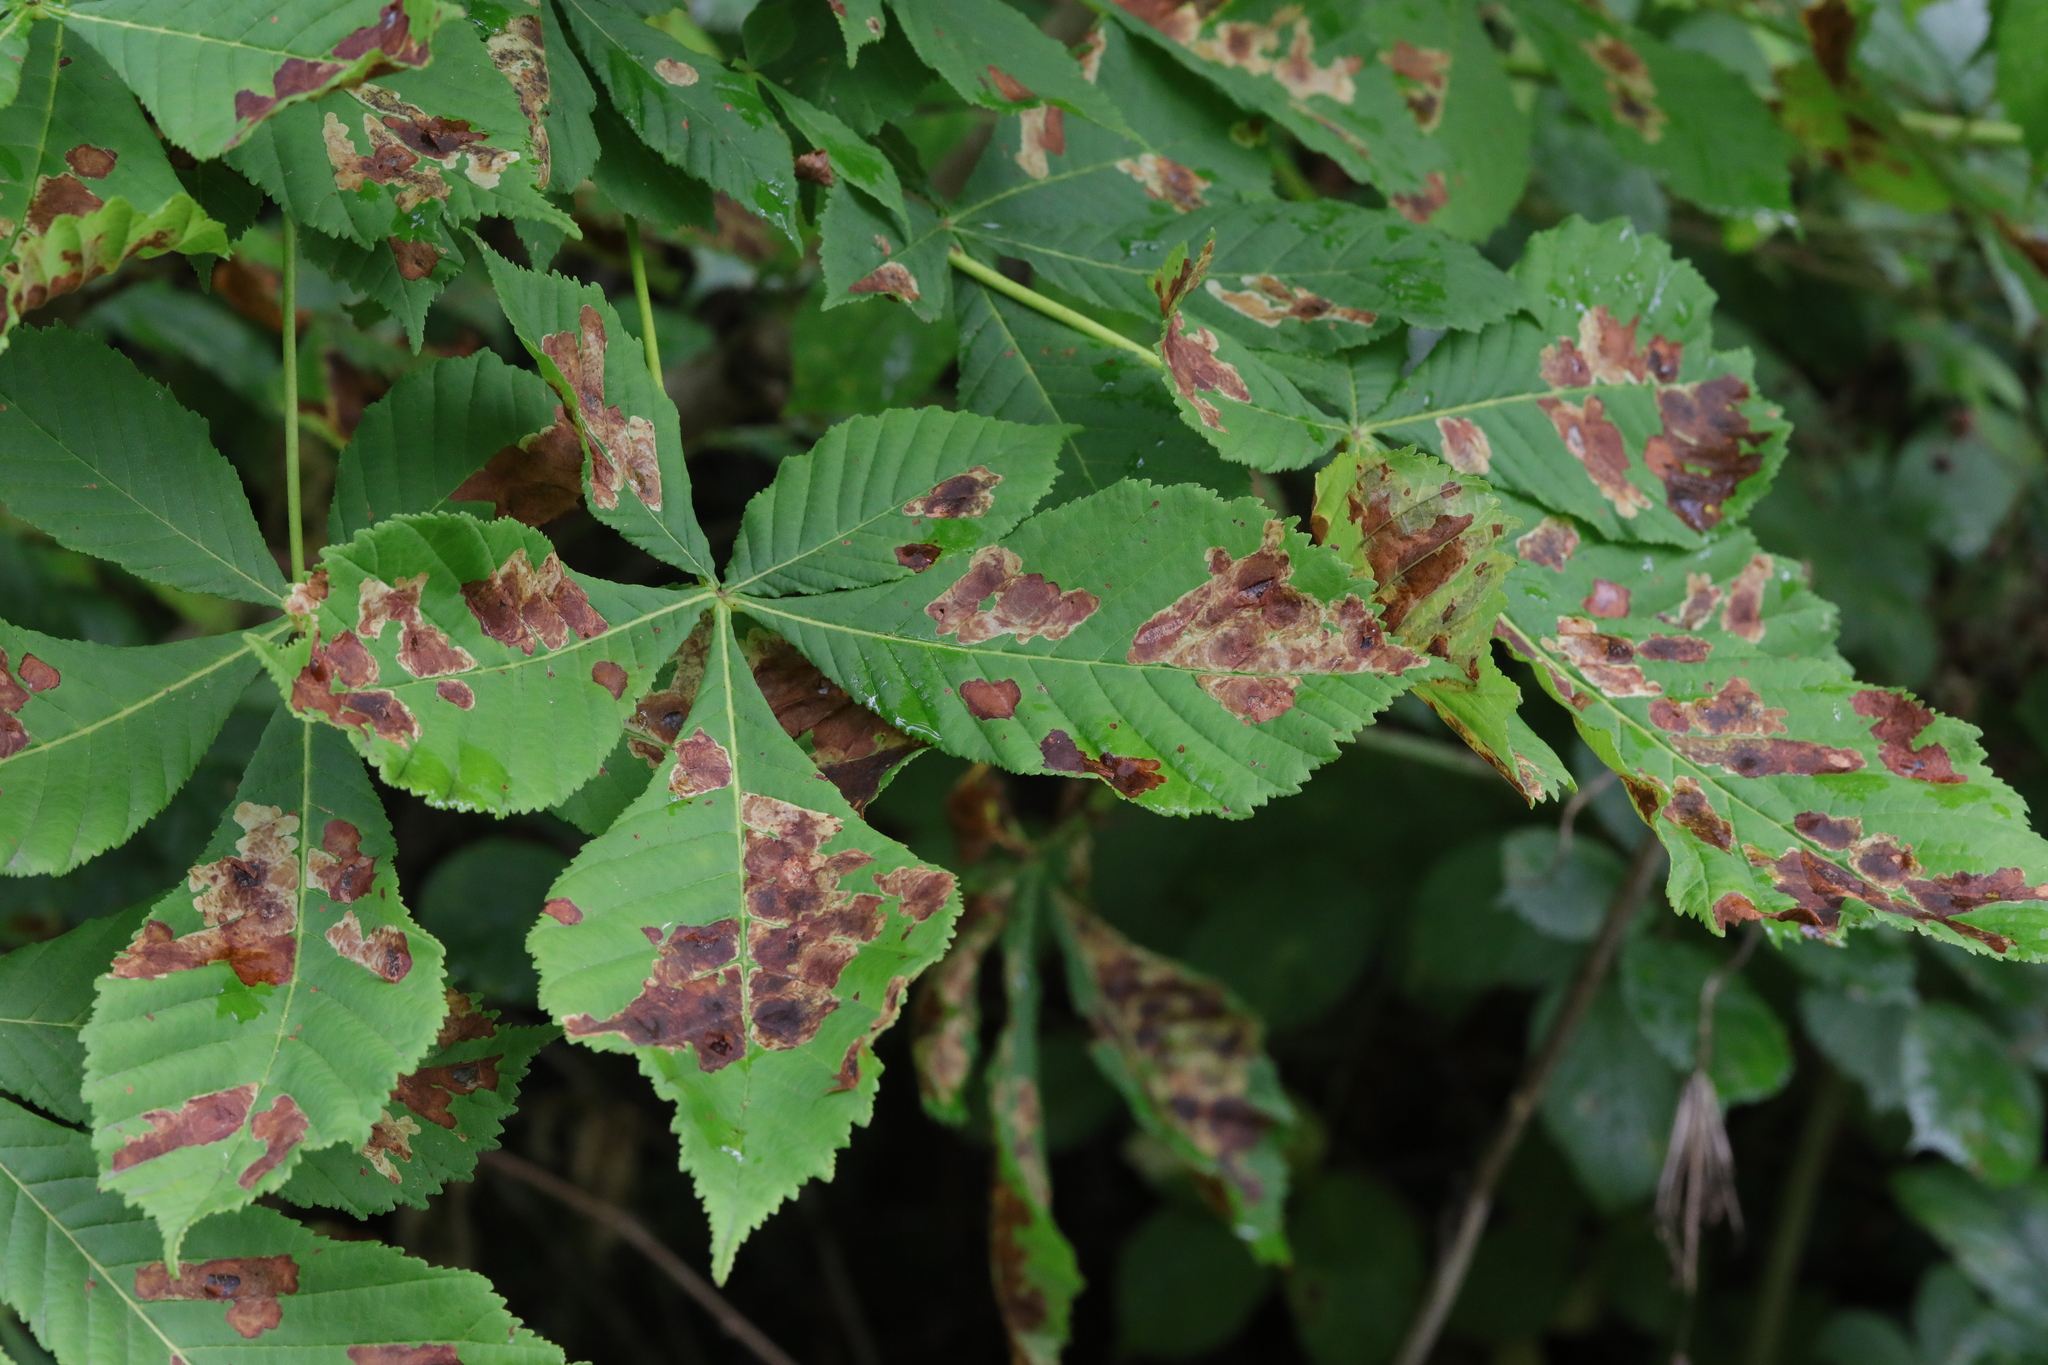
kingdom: Plantae
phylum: Tracheophyta
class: Magnoliopsida
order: Sapindales
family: Sapindaceae
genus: Aesculus
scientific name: Aesculus hippocastanum
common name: Horse-chestnut
